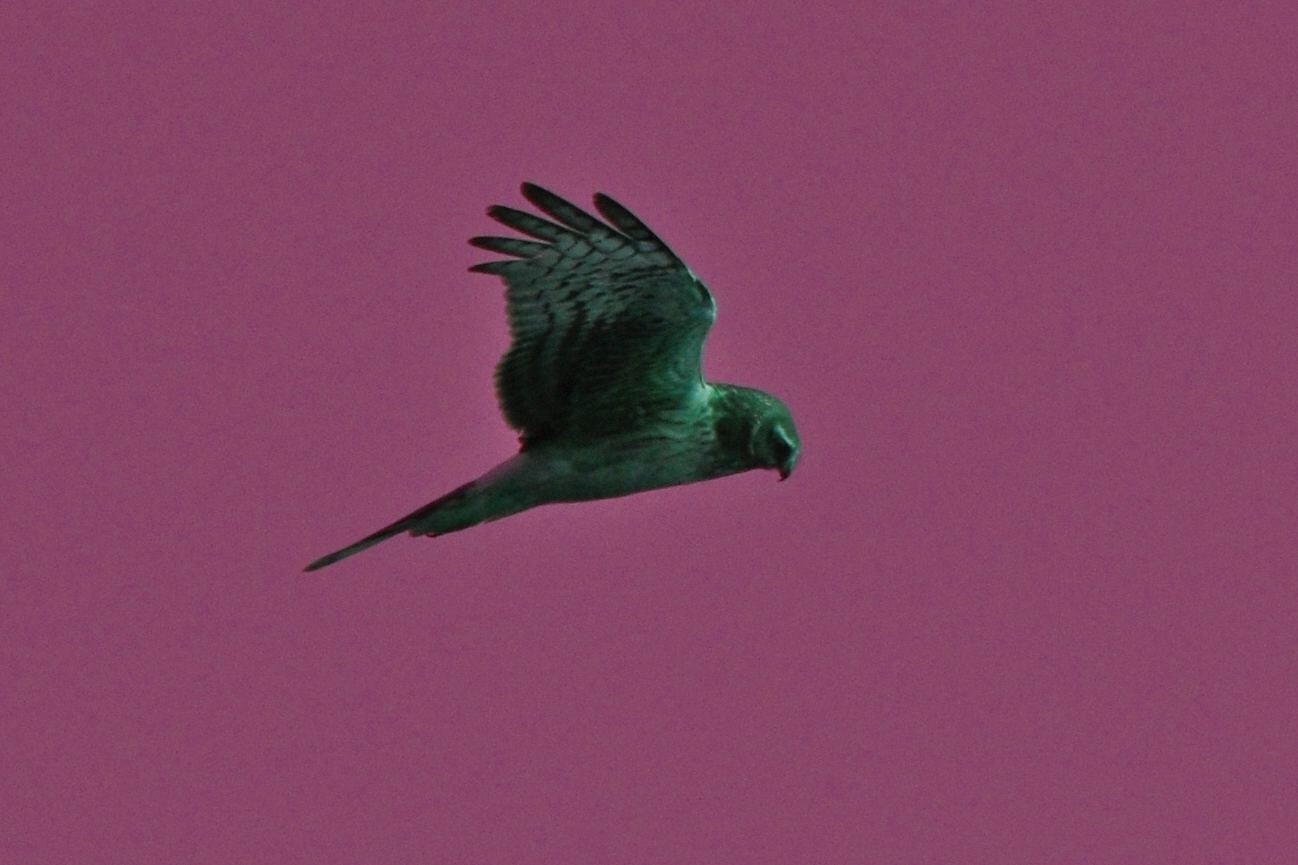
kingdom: Animalia
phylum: Chordata
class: Aves
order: Accipitriformes
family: Accipitridae
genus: Circus
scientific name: Circus cyaneus
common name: Hen harrier
